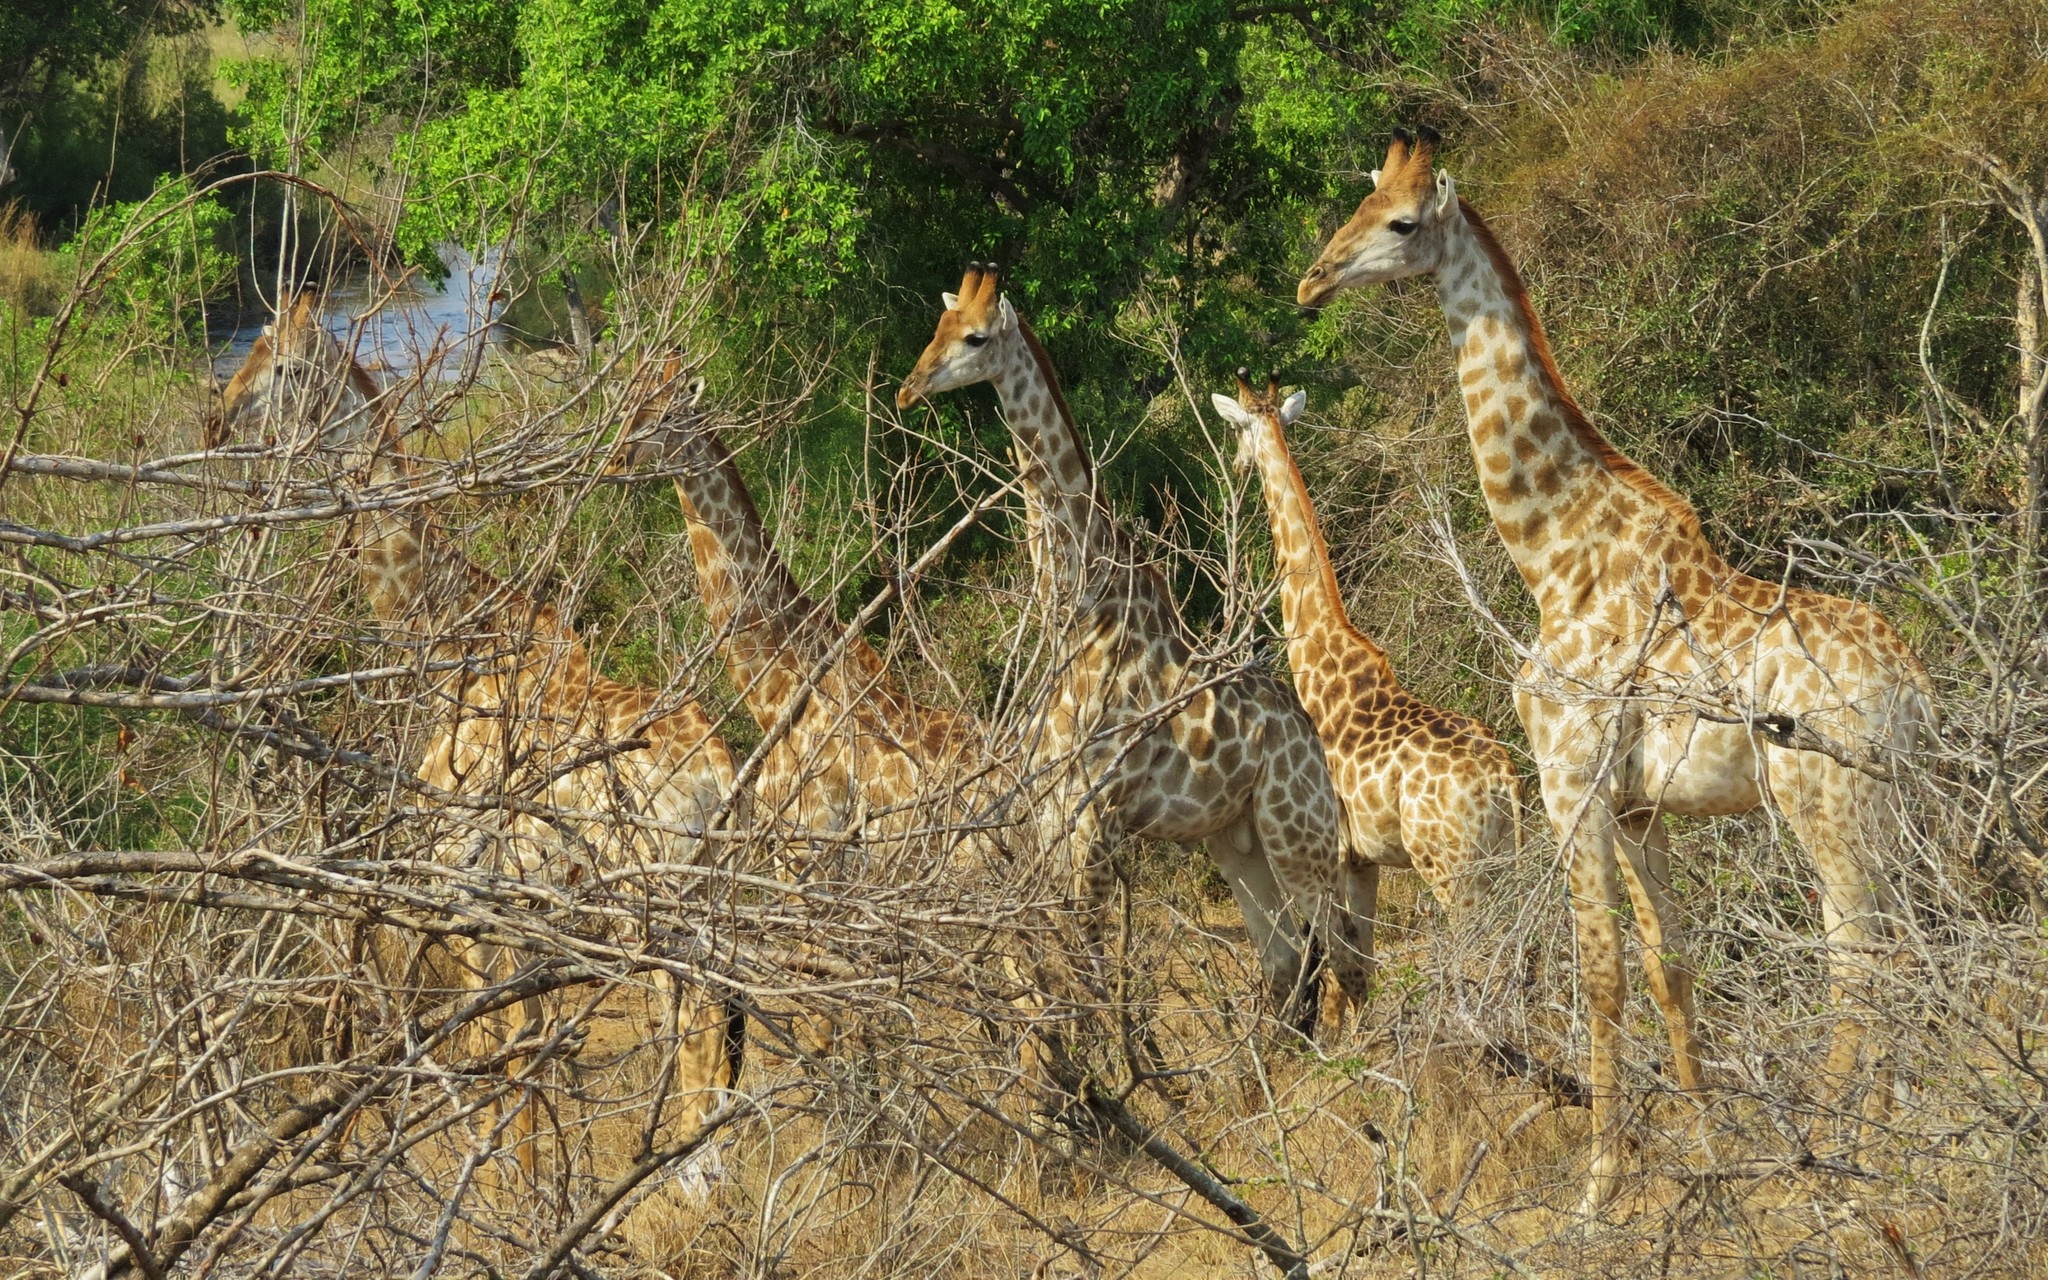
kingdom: Animalia
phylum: Chordata
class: Mammalia
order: Artiodactyla
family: Giraffidae
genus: Giraffa
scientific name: Giraffa giraffa
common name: Southern giraffe
